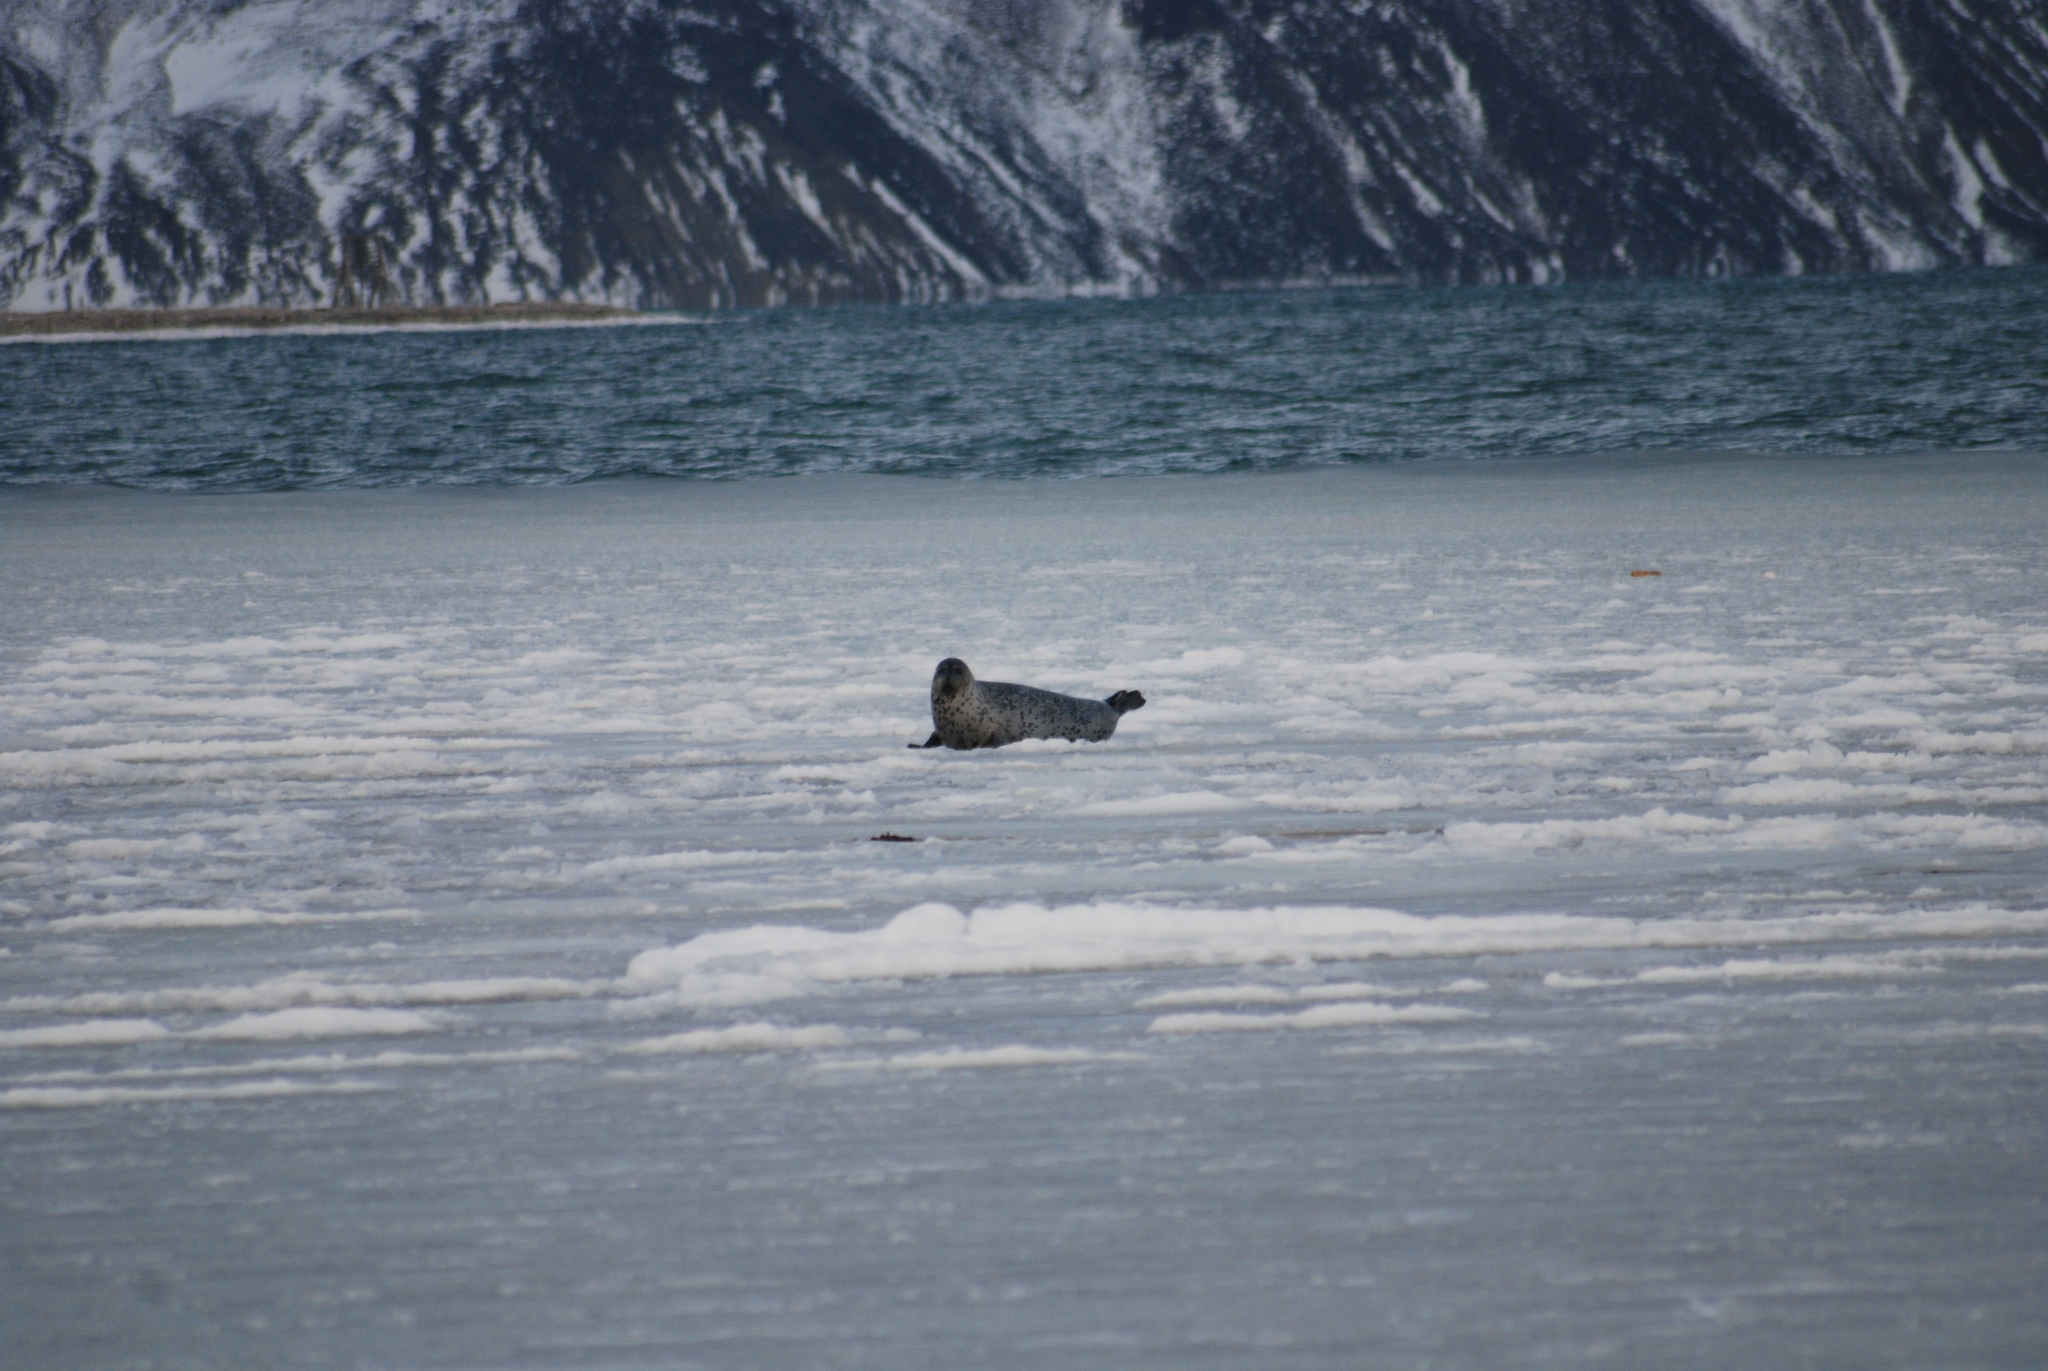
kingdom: Animalia
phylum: Chordata
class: Mammalia
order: Carnivora
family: Phocidae
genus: Phoca
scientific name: Phoca largha
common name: Spotted seal
